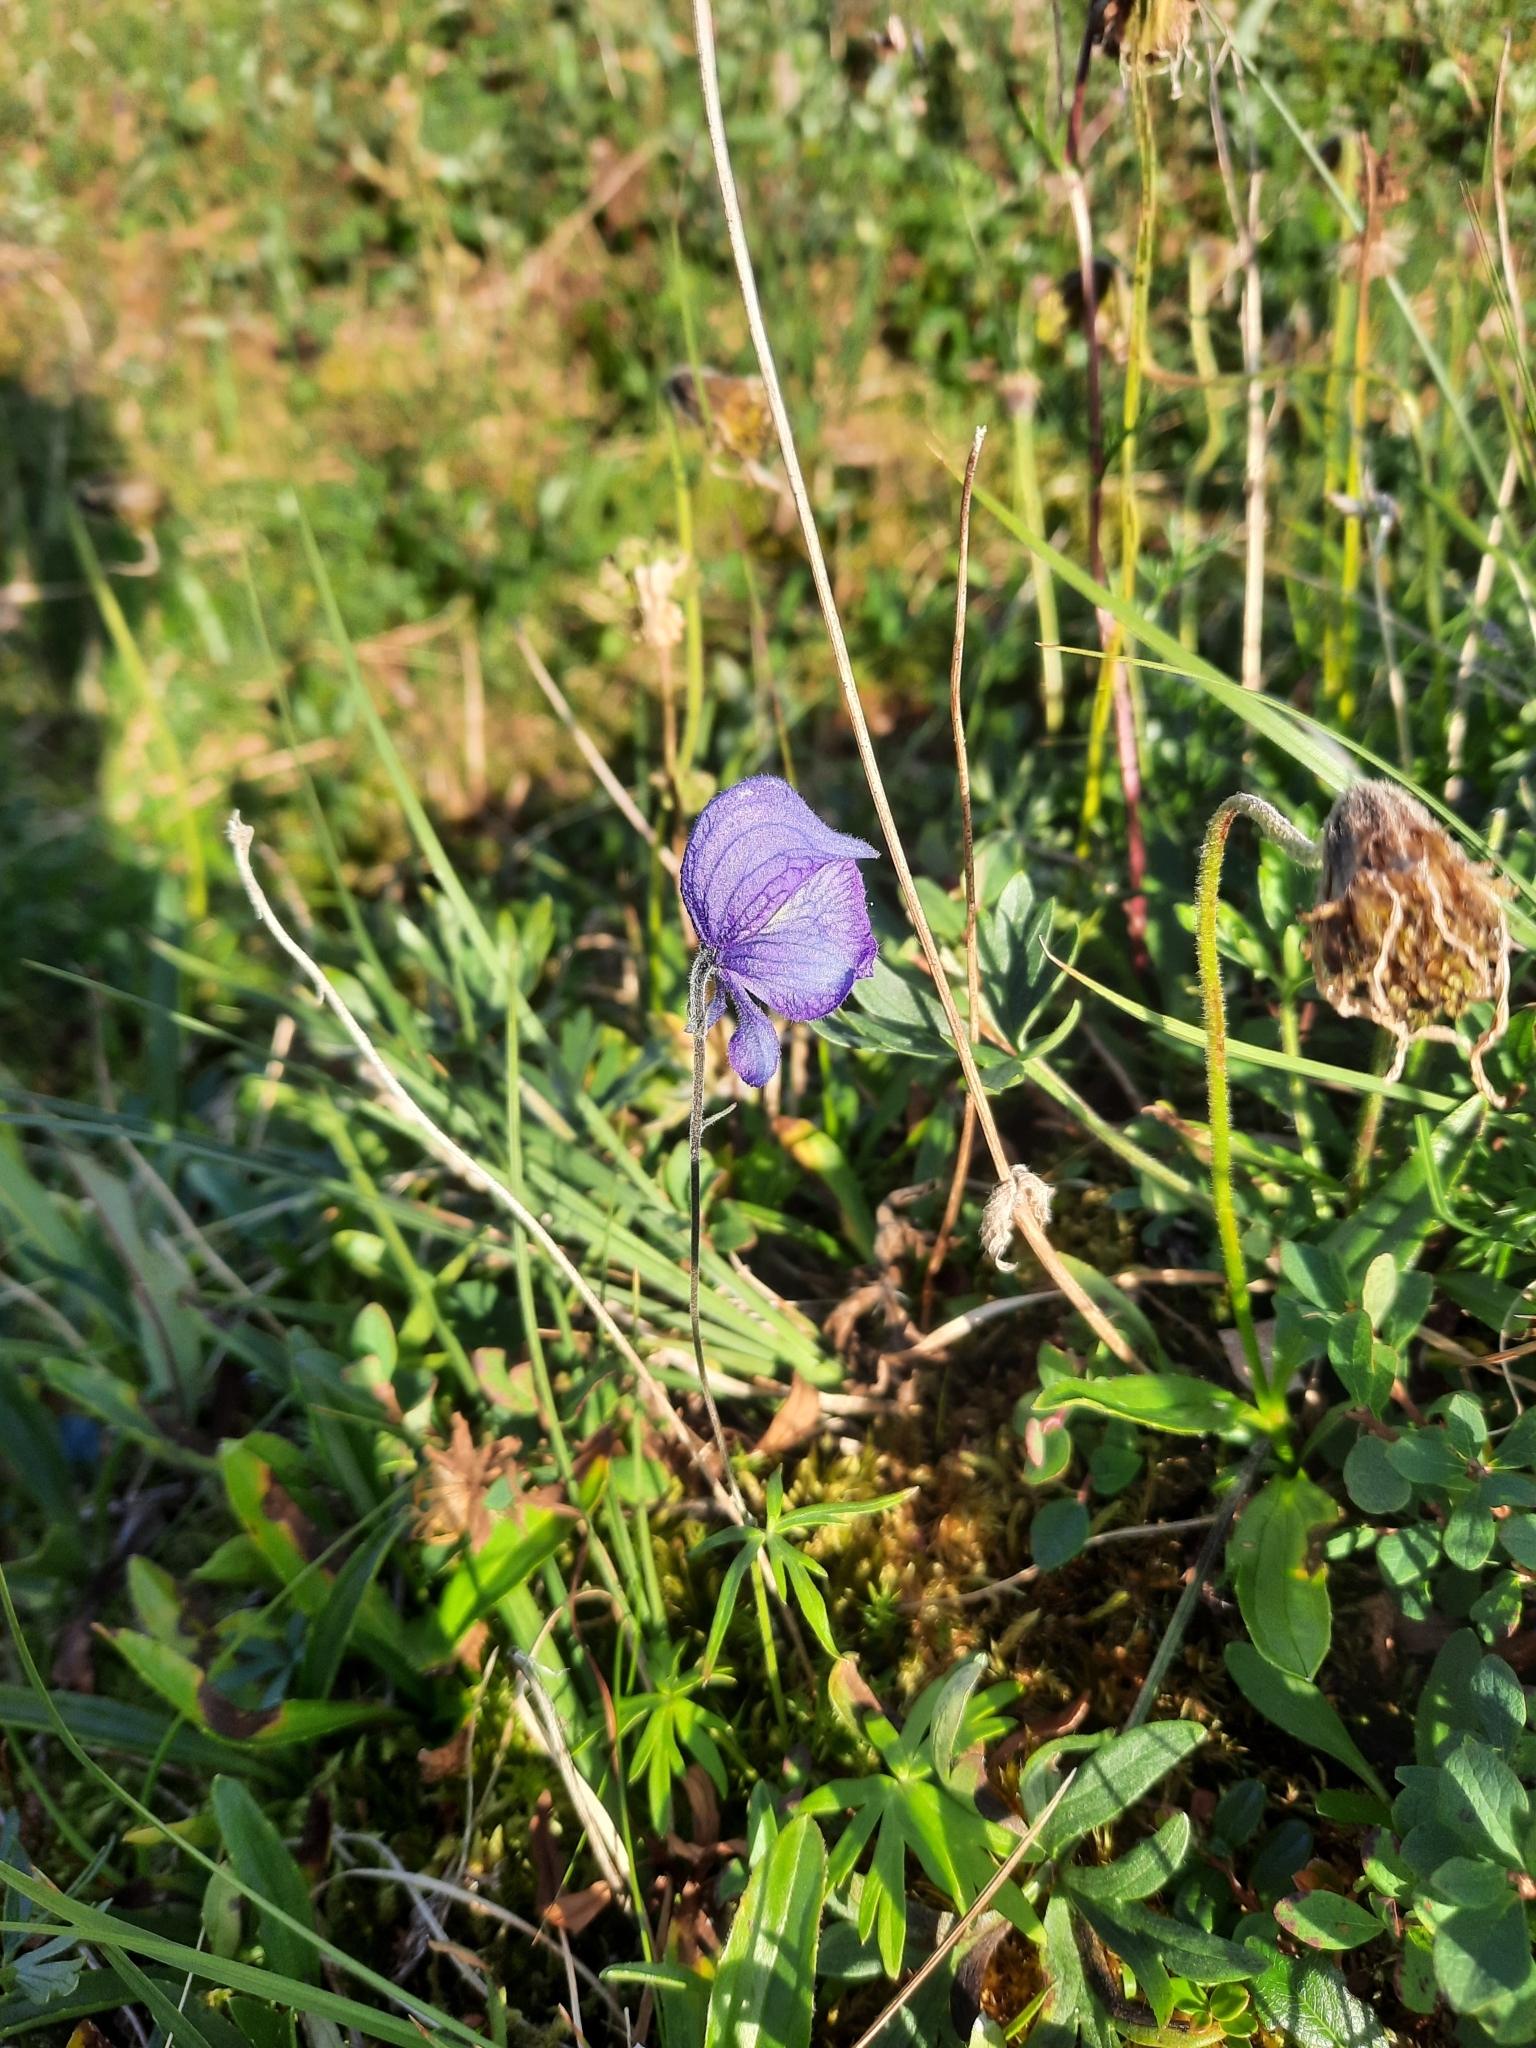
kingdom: Plantae
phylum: Tracheophyta
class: Magnoliopsida
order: Ranunculales
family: Ranunculaceae
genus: Aconitum
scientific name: Aconitum delphiniifolium
